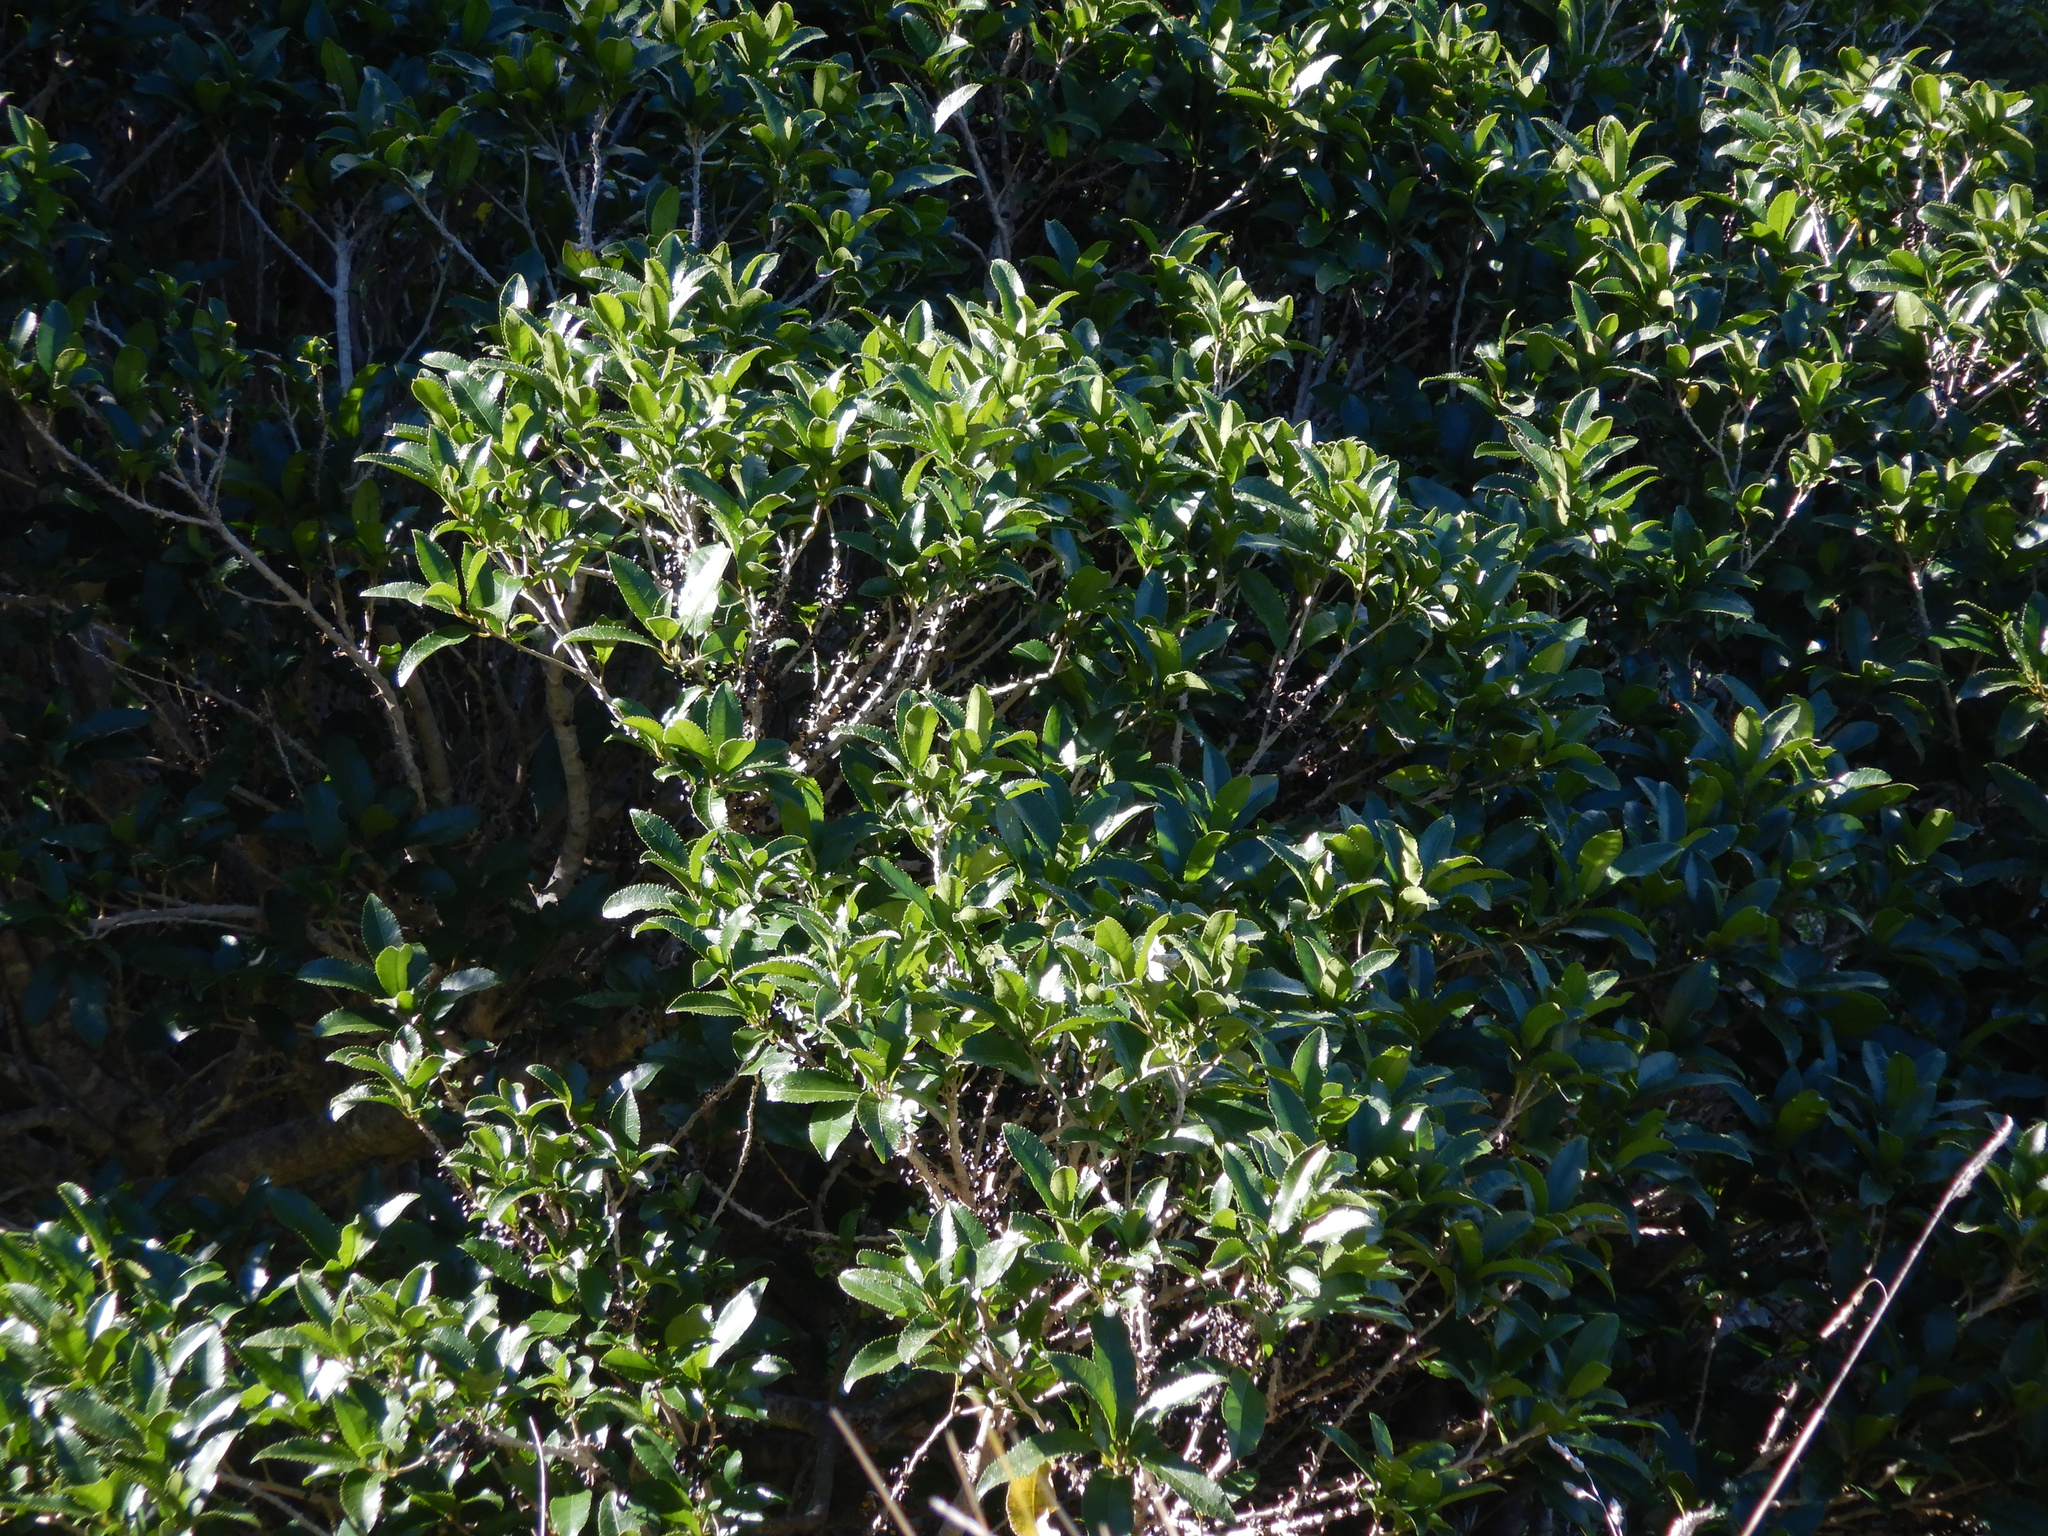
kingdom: Plantae
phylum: Tracheophyta
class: Magnoliopsida
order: Malpighiales
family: Violaceae
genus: Melicytus
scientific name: Melicytus ramiflorus
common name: Mahoe
